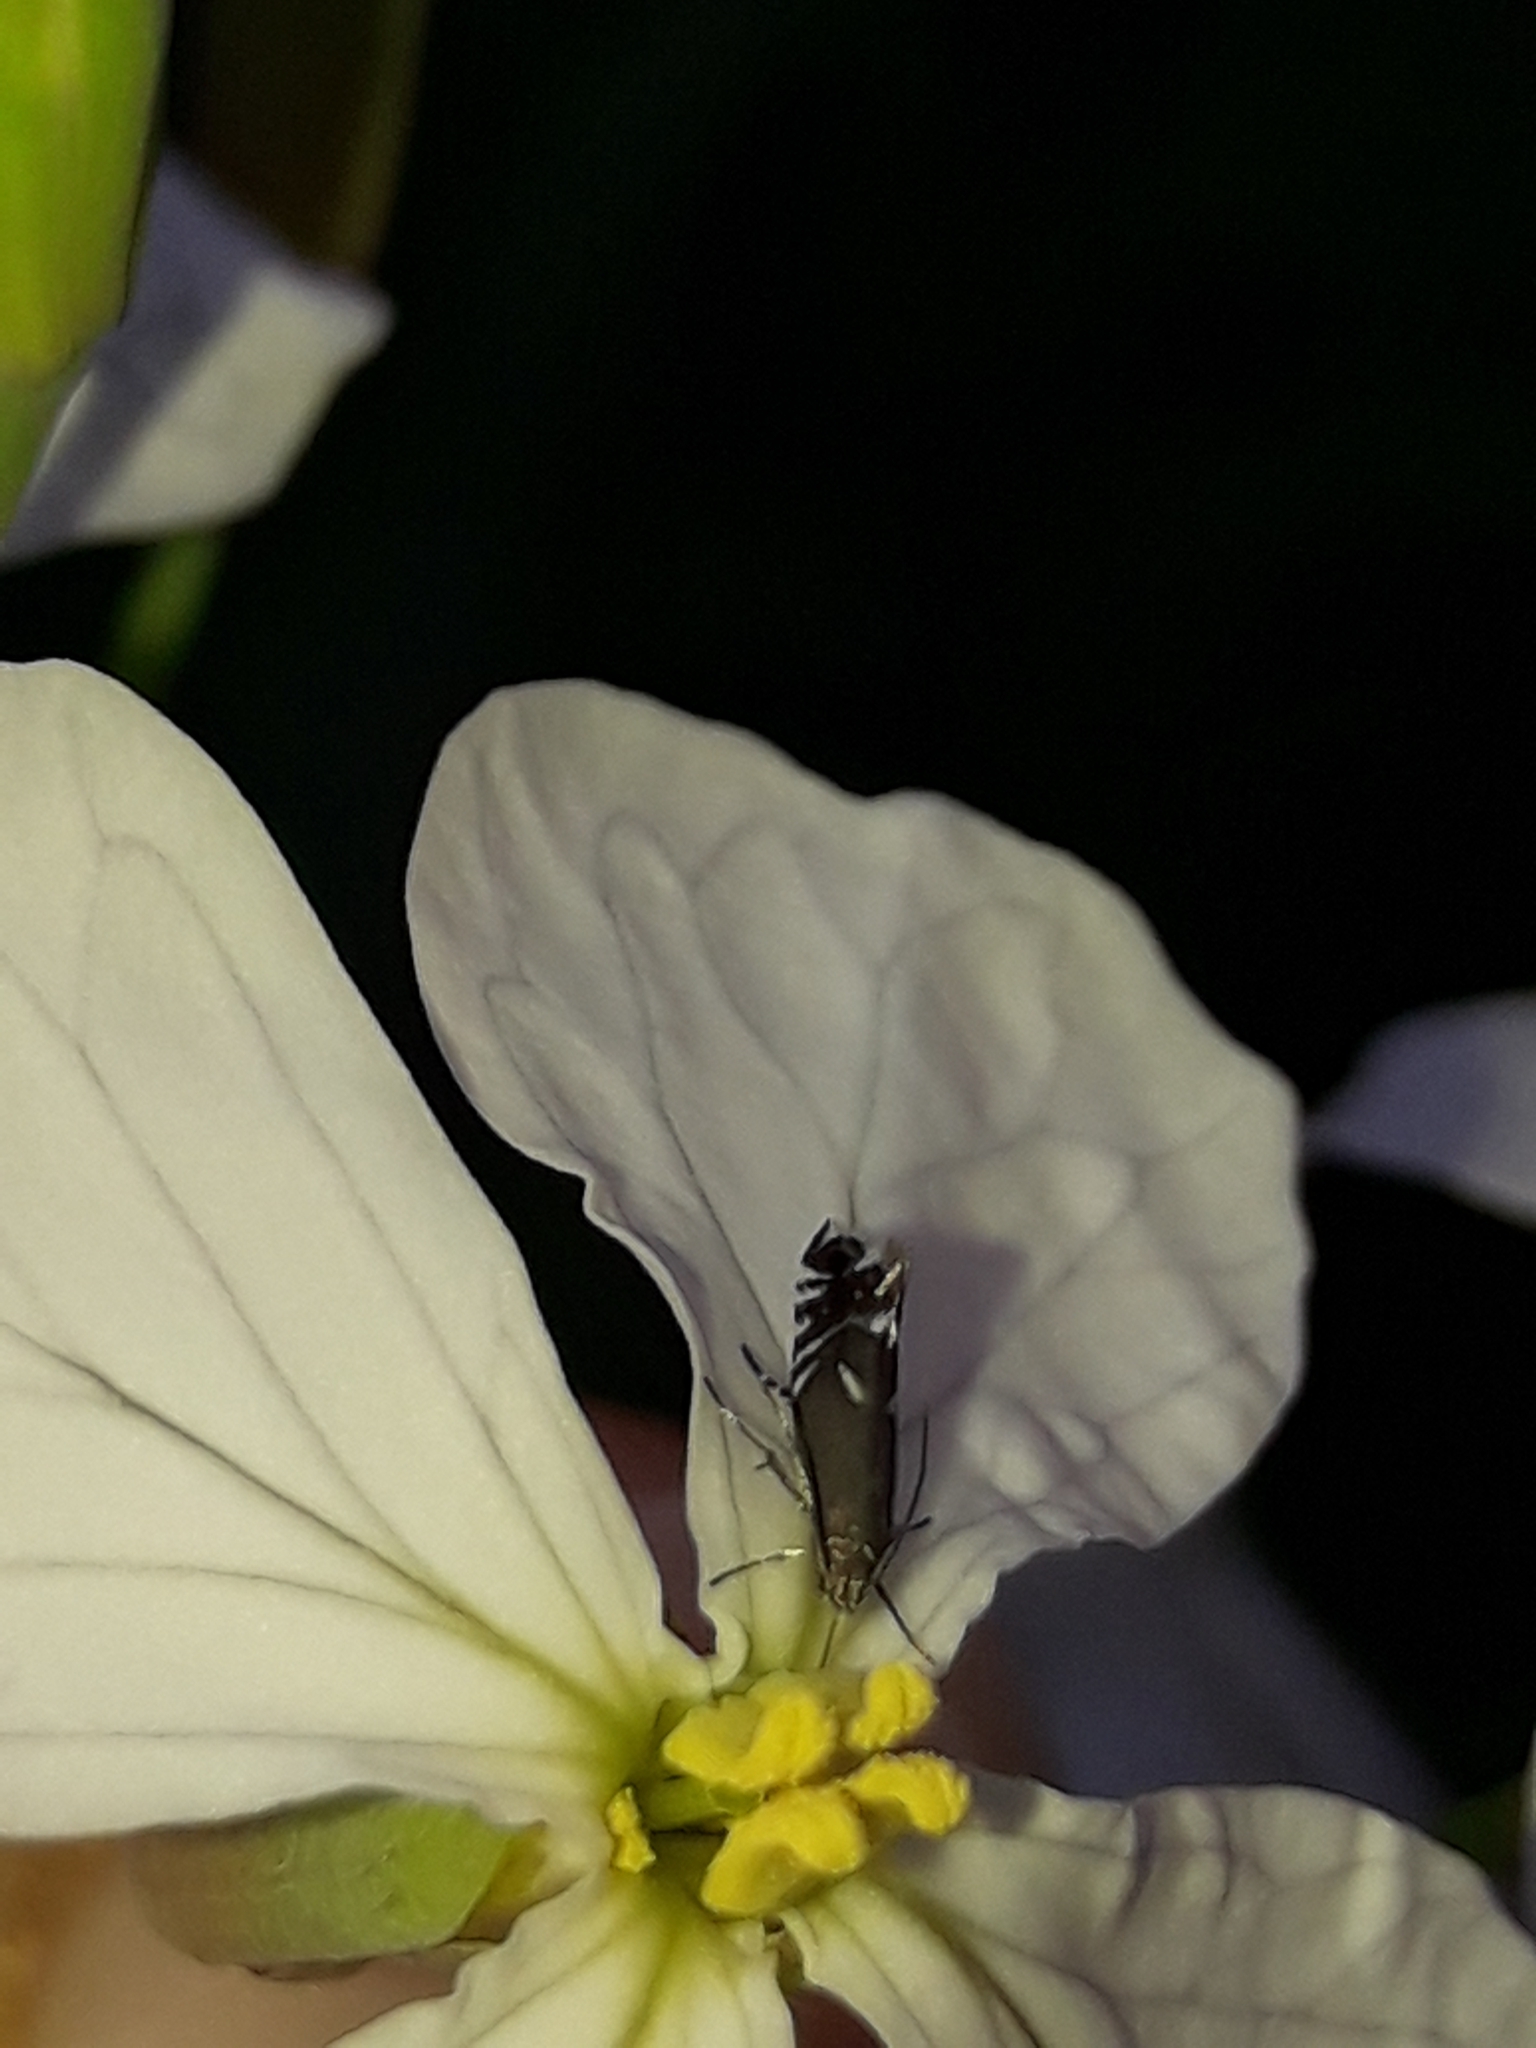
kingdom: Animalia
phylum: Arthropoda
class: Insecta
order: Lepidoptera
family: Glyphipterigidae
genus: Glyphipterix
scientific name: Glyphipterix simpliciella
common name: Cocksfoot moth
